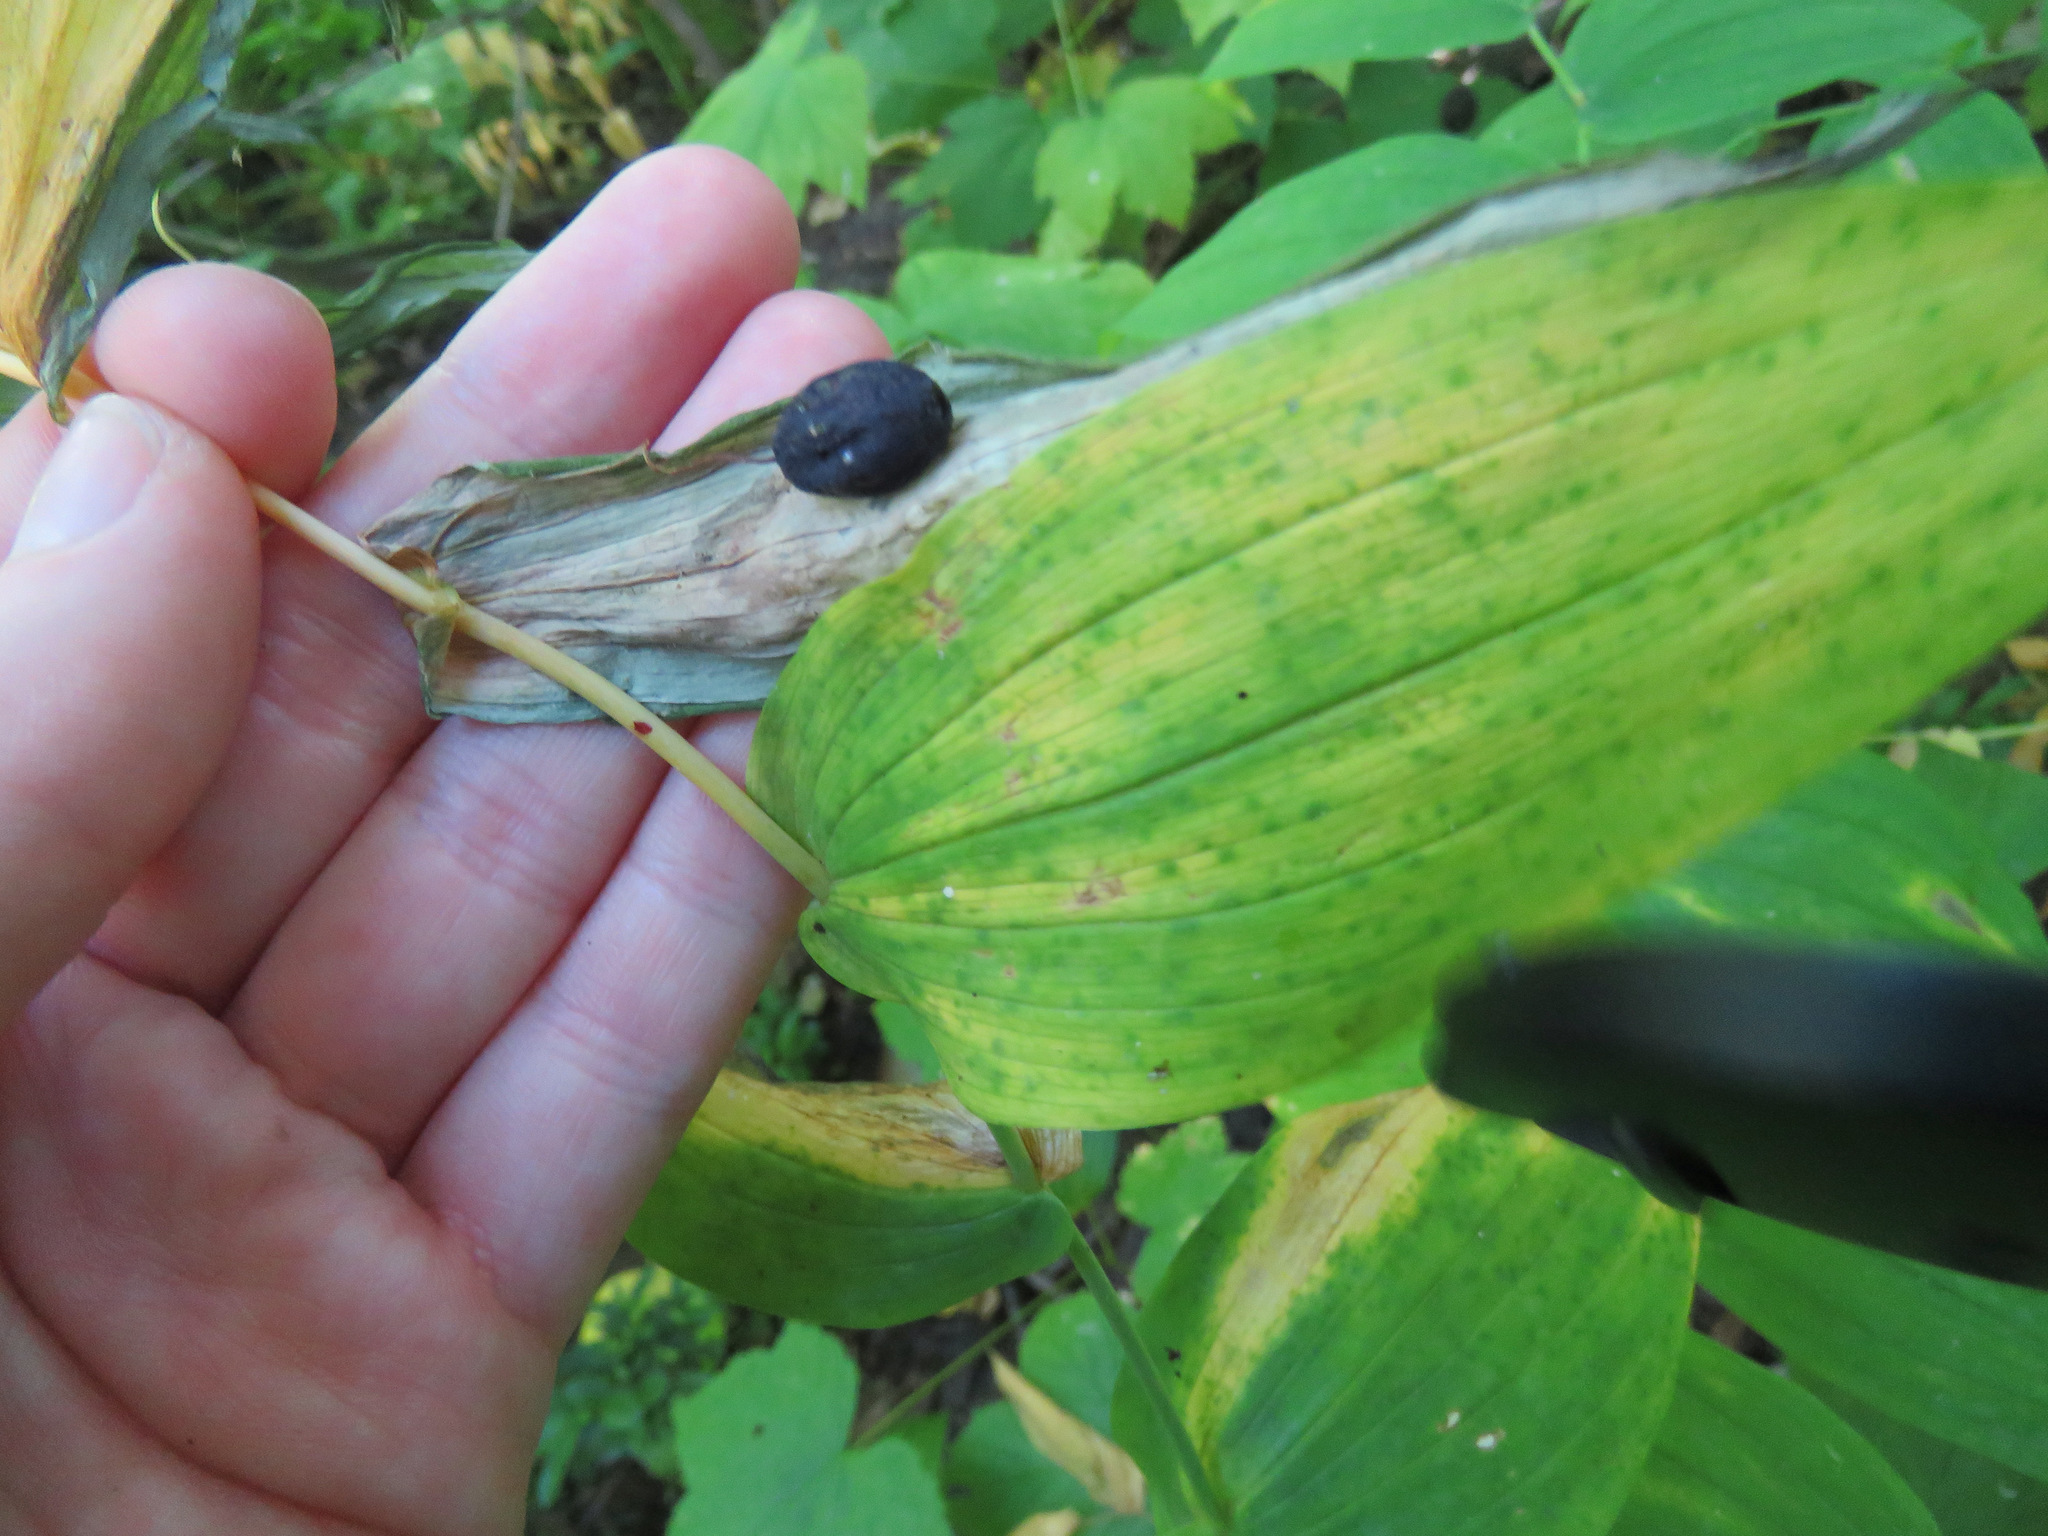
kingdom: Plantae
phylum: Tracheophyta
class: Liliopsida
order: Liliales
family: Liliaceae
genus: Streptopus
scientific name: Streptopus amplexifolius
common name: Clasp twisted stalk
